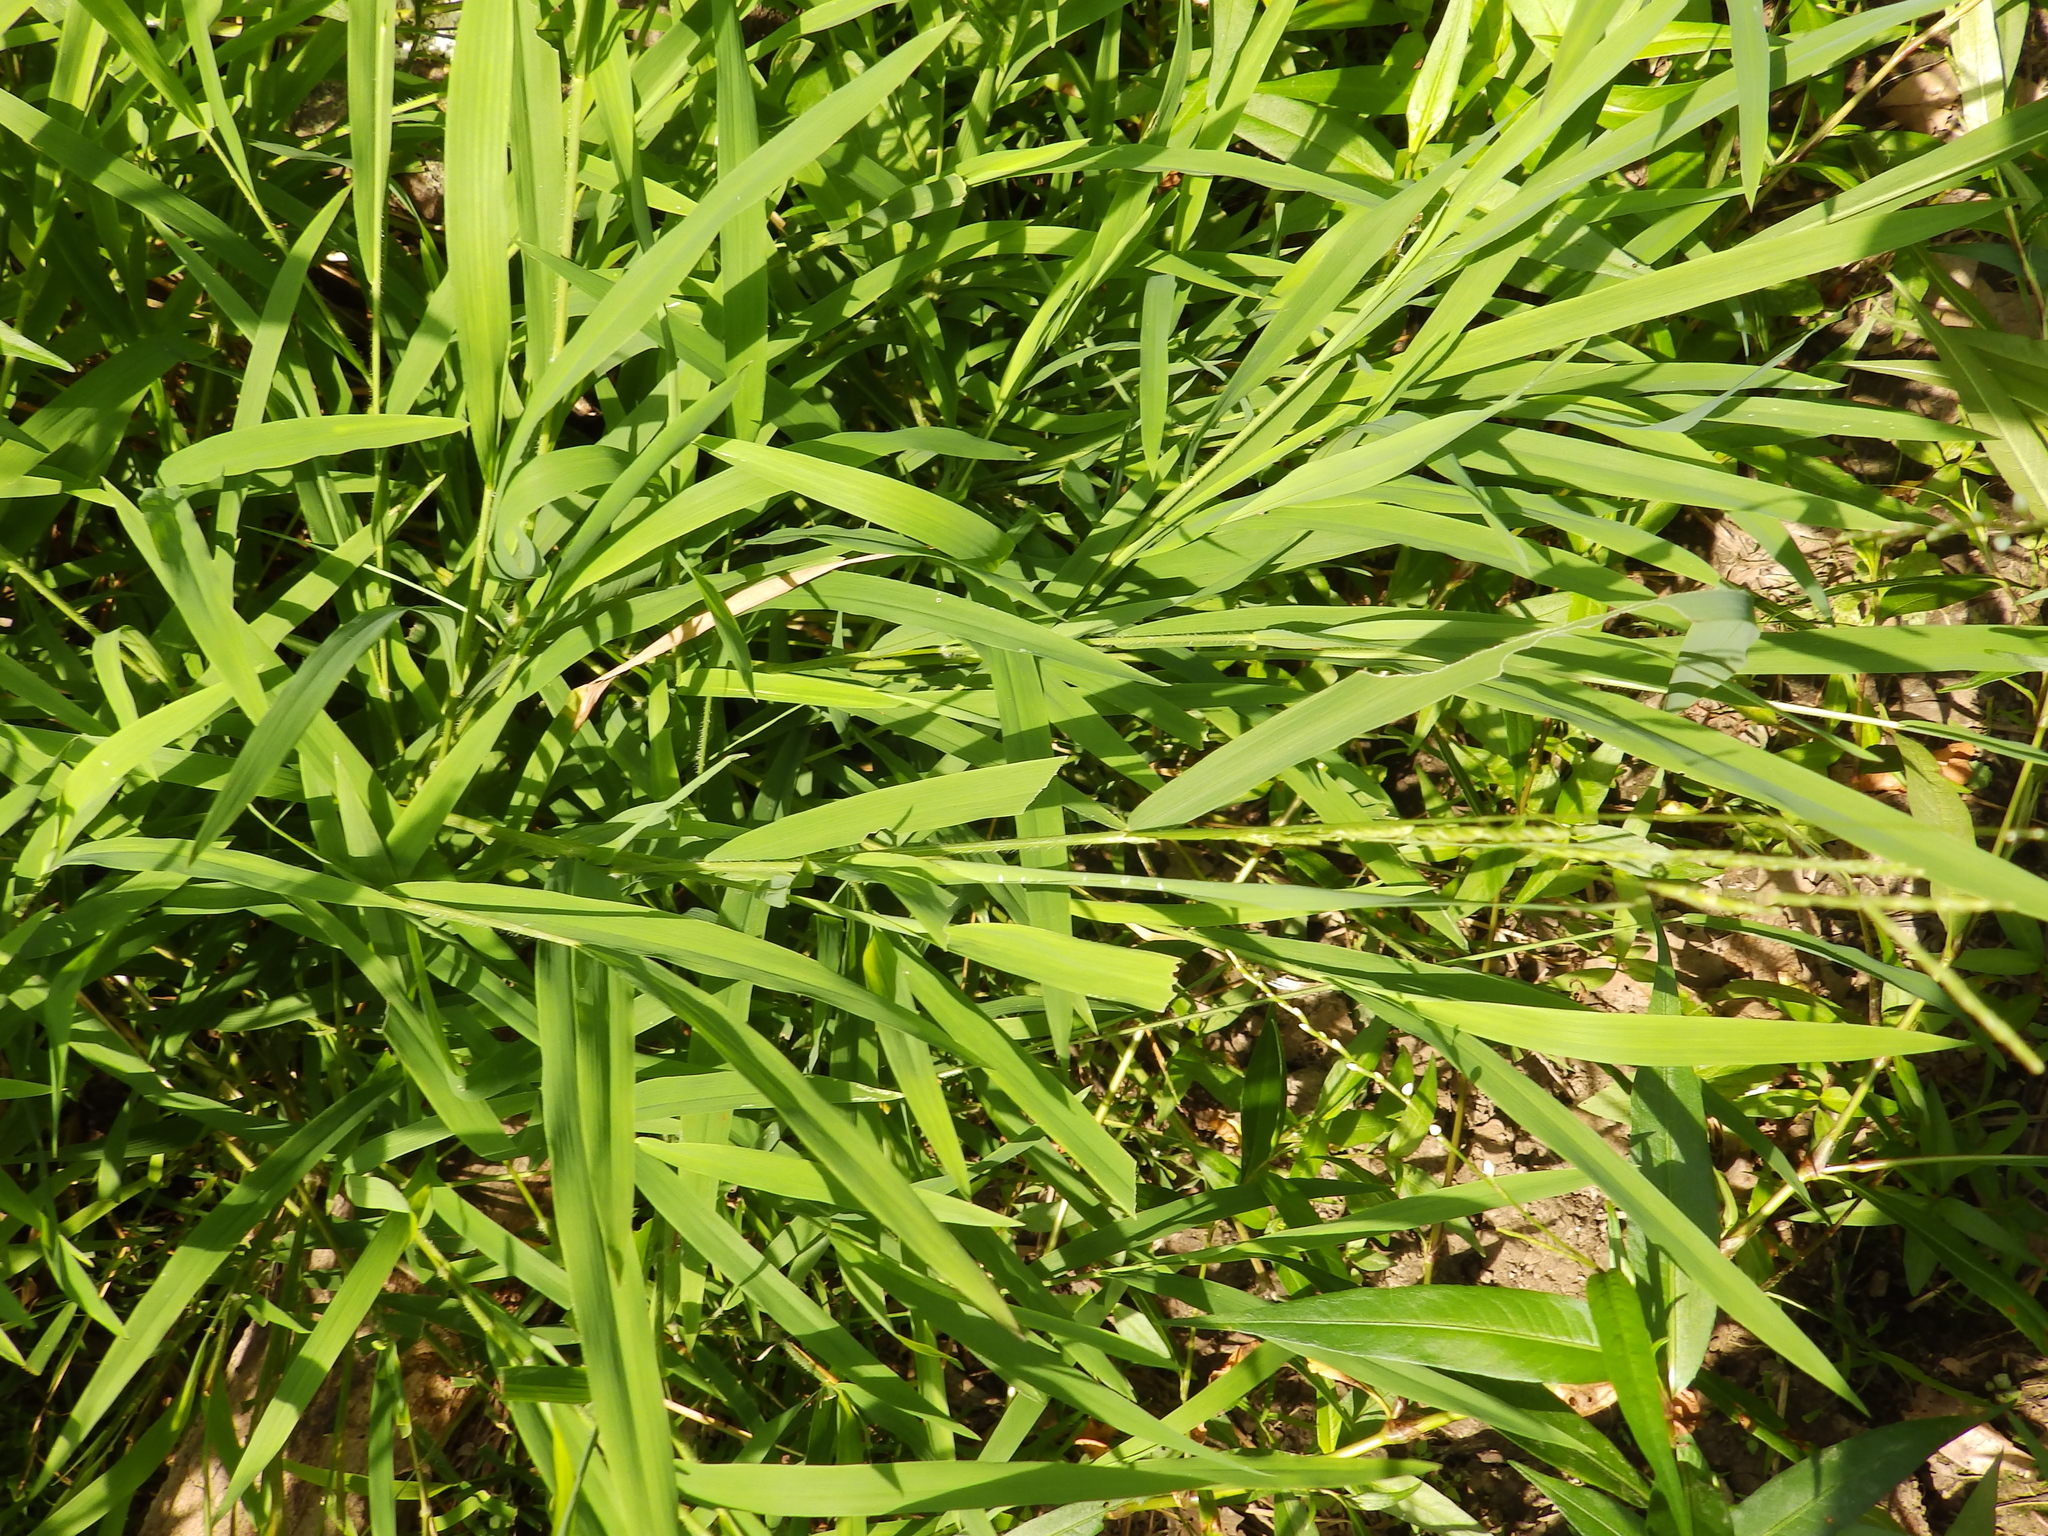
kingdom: Plantae
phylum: Tracheophyta
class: Liliopsida
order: Poales
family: Poaceae
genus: Leersia
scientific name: Leersia virginica
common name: White cutgrass
